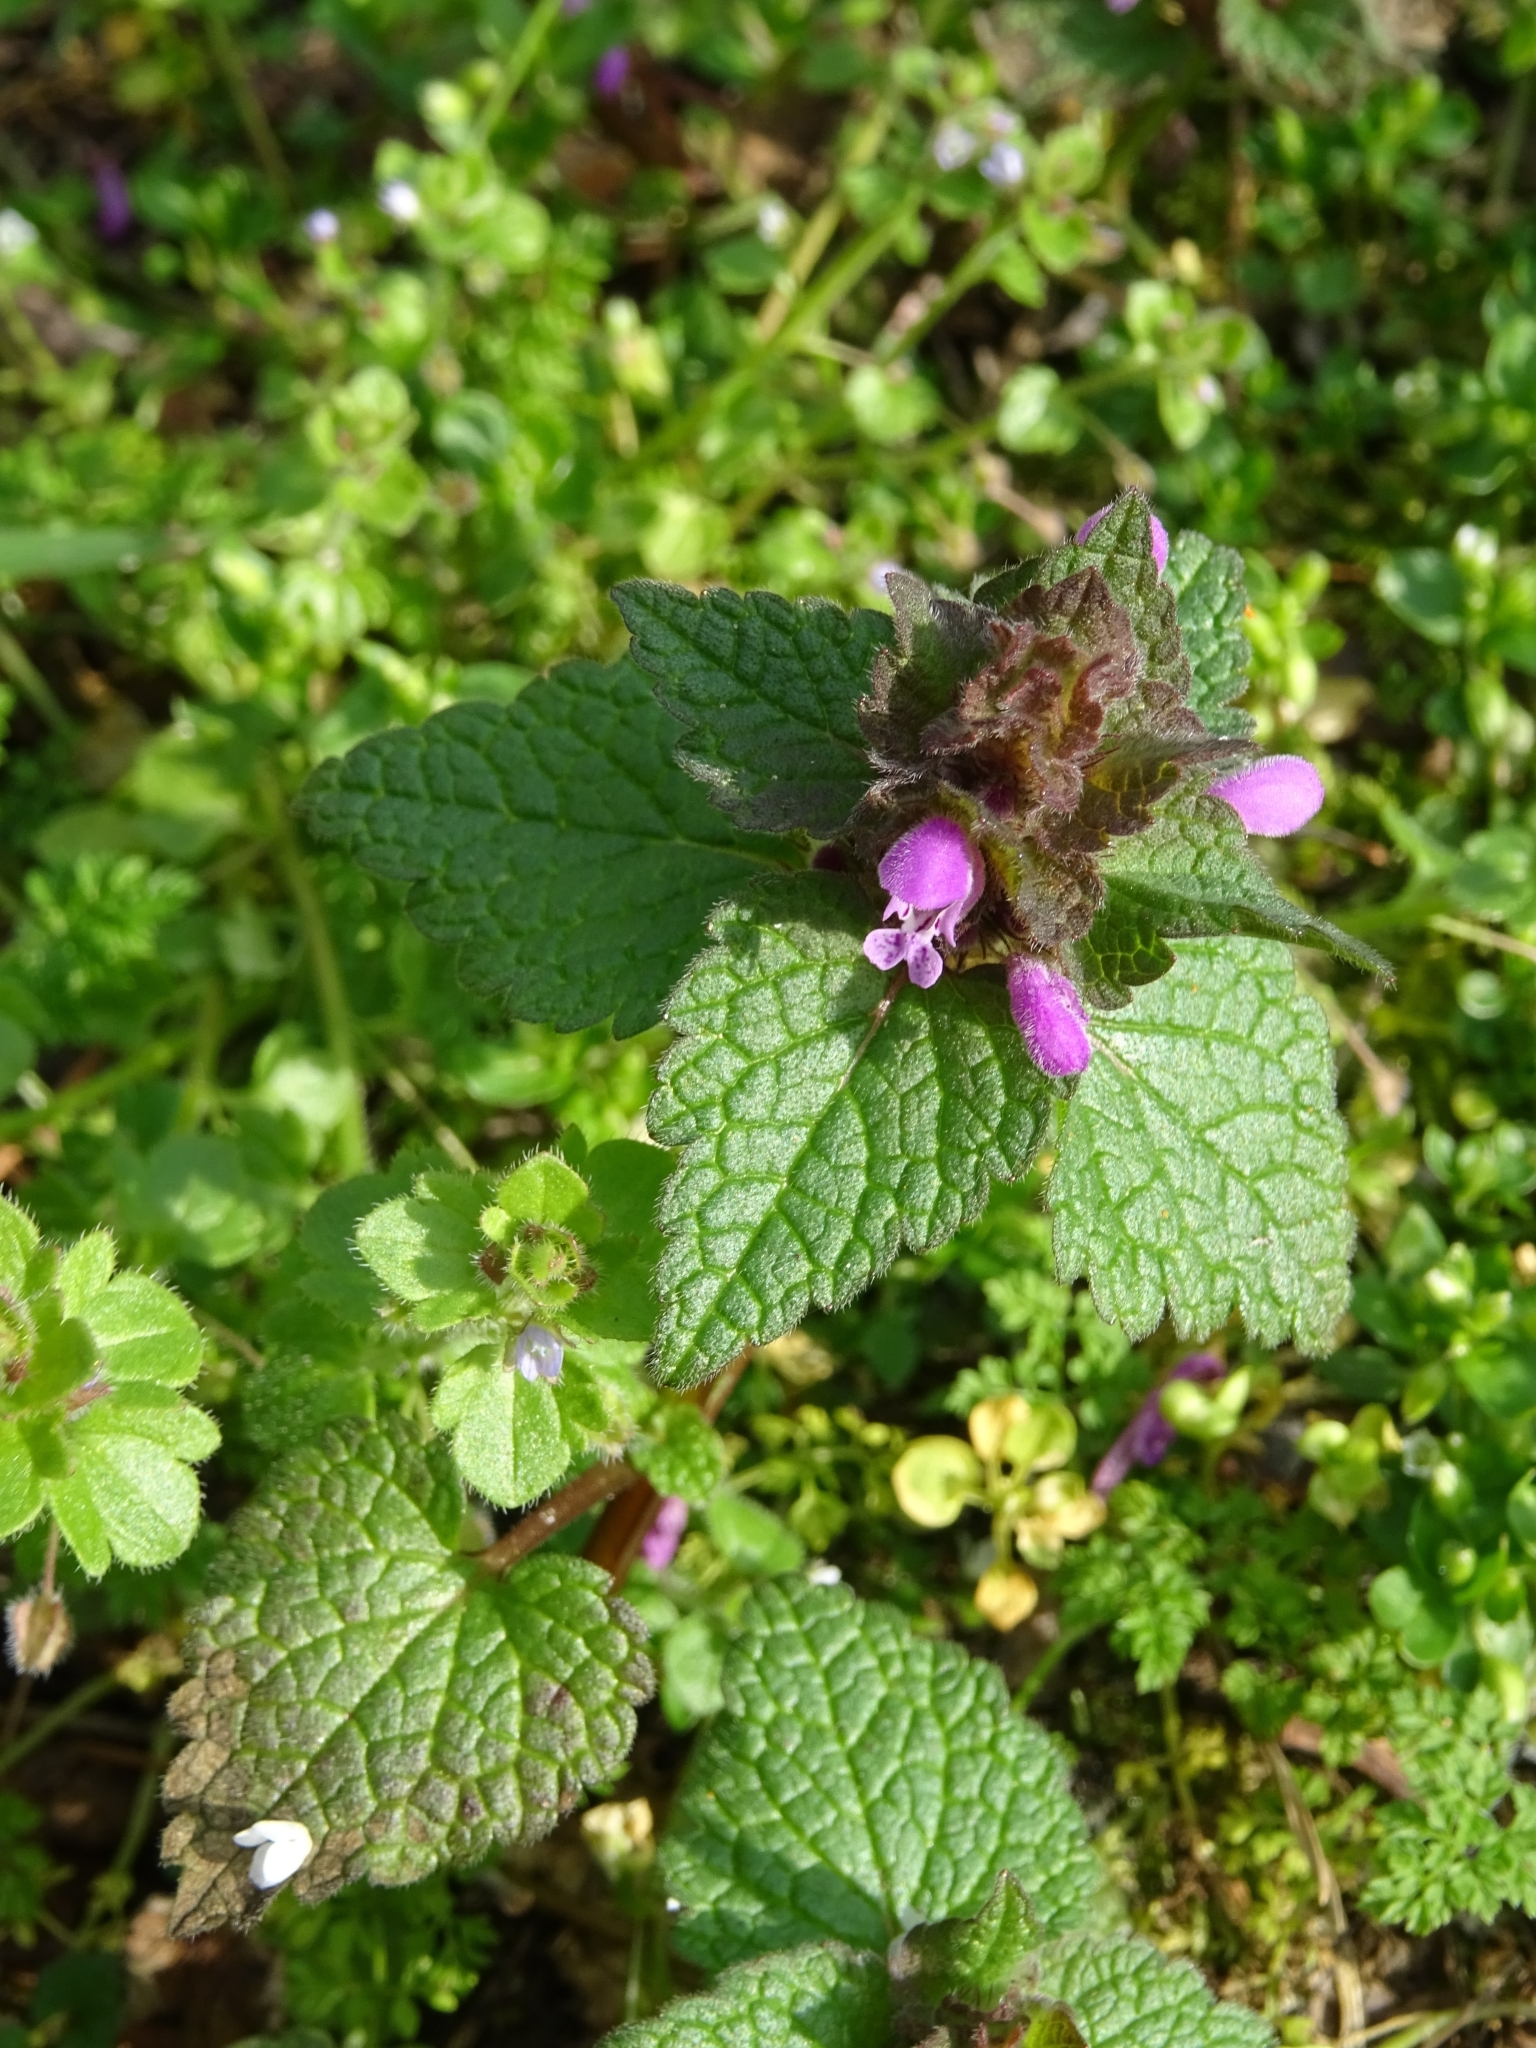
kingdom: Plantae
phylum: Tracheophyta
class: Magnoliopsida
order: Lamiales
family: Lamiaceae
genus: Lamium
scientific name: Lamium purpureum
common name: Red dead-nettle
